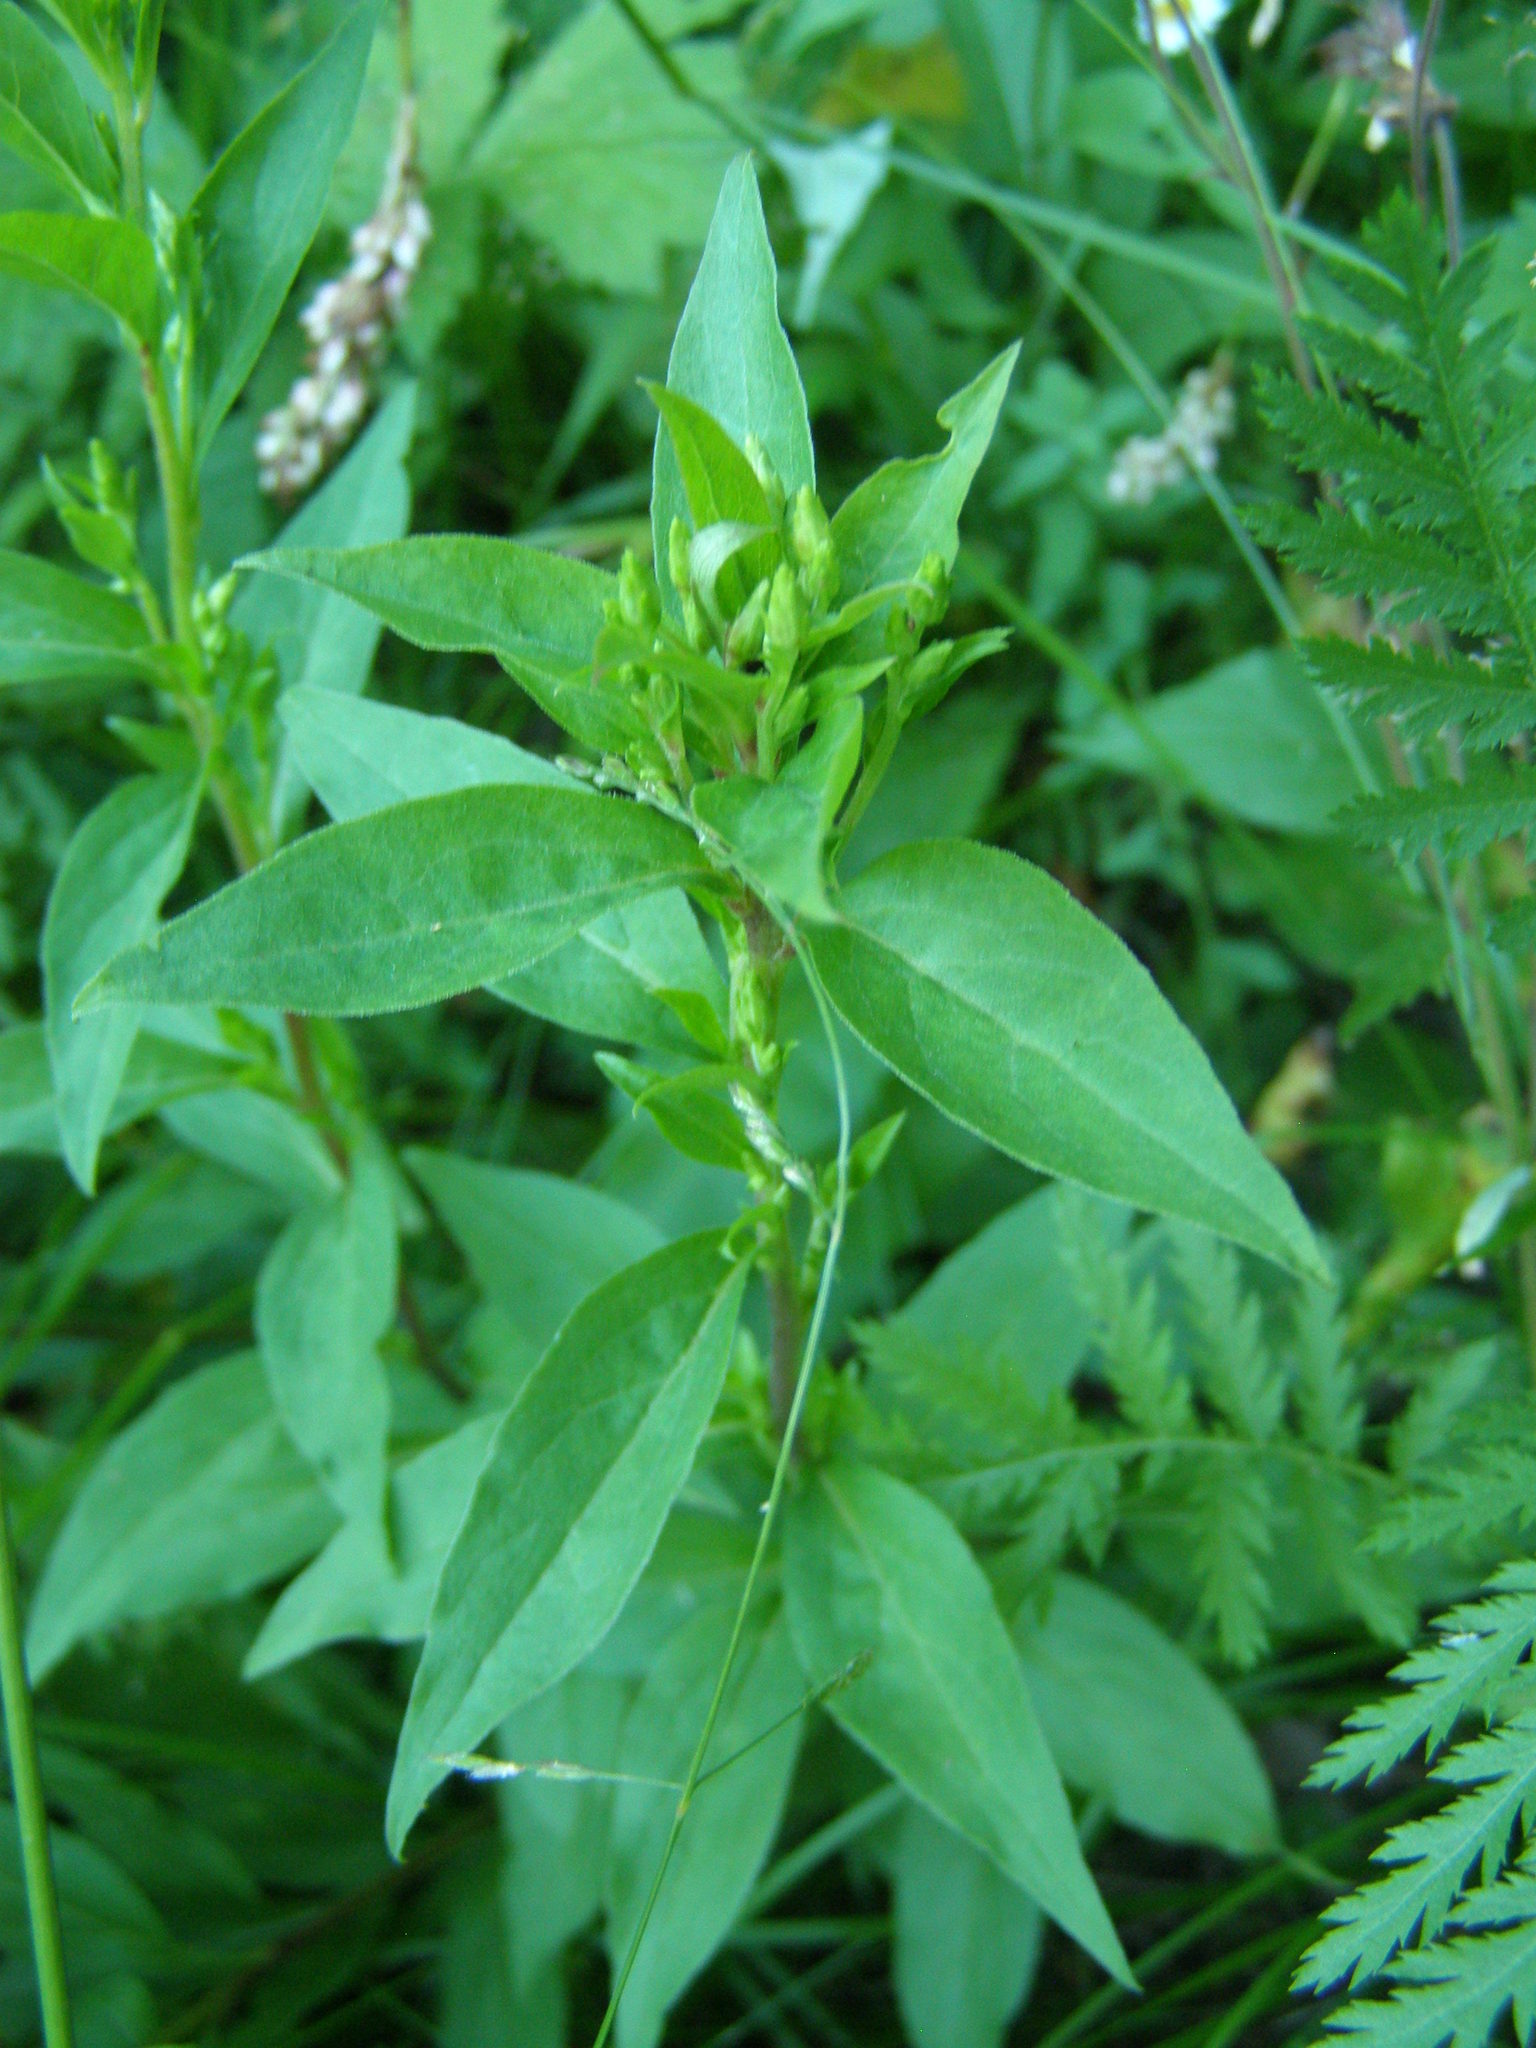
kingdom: Plantae
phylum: Tracheophyta
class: Magnoliopsida
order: Asterales
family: Asteraceae
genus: Solidago
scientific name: Solidago virgaurea
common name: Goldenrod
